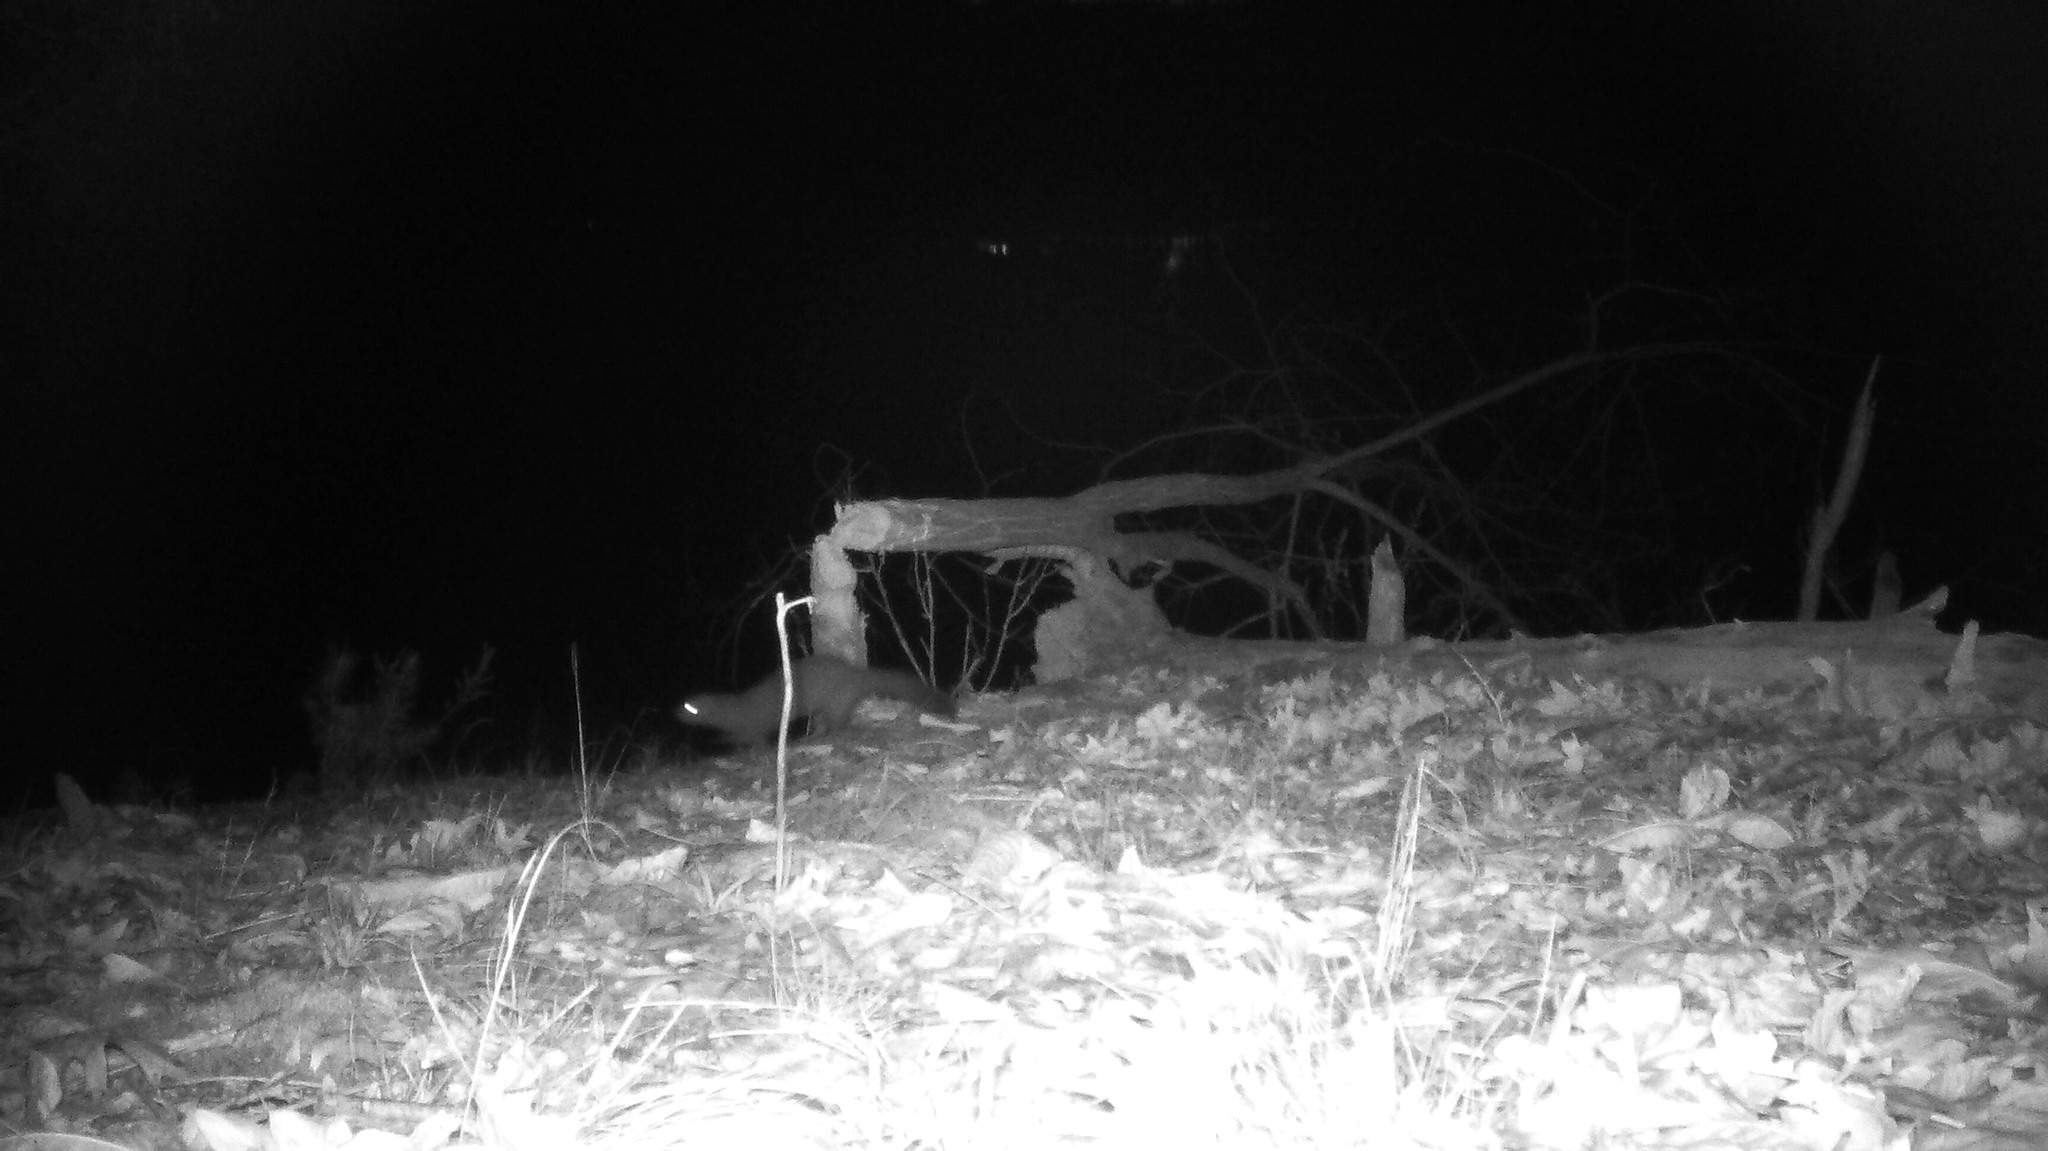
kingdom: Animalia
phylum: Chordata
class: Mammalia
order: Carnivora
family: Mustelidae
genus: Mustela
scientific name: Mustela
